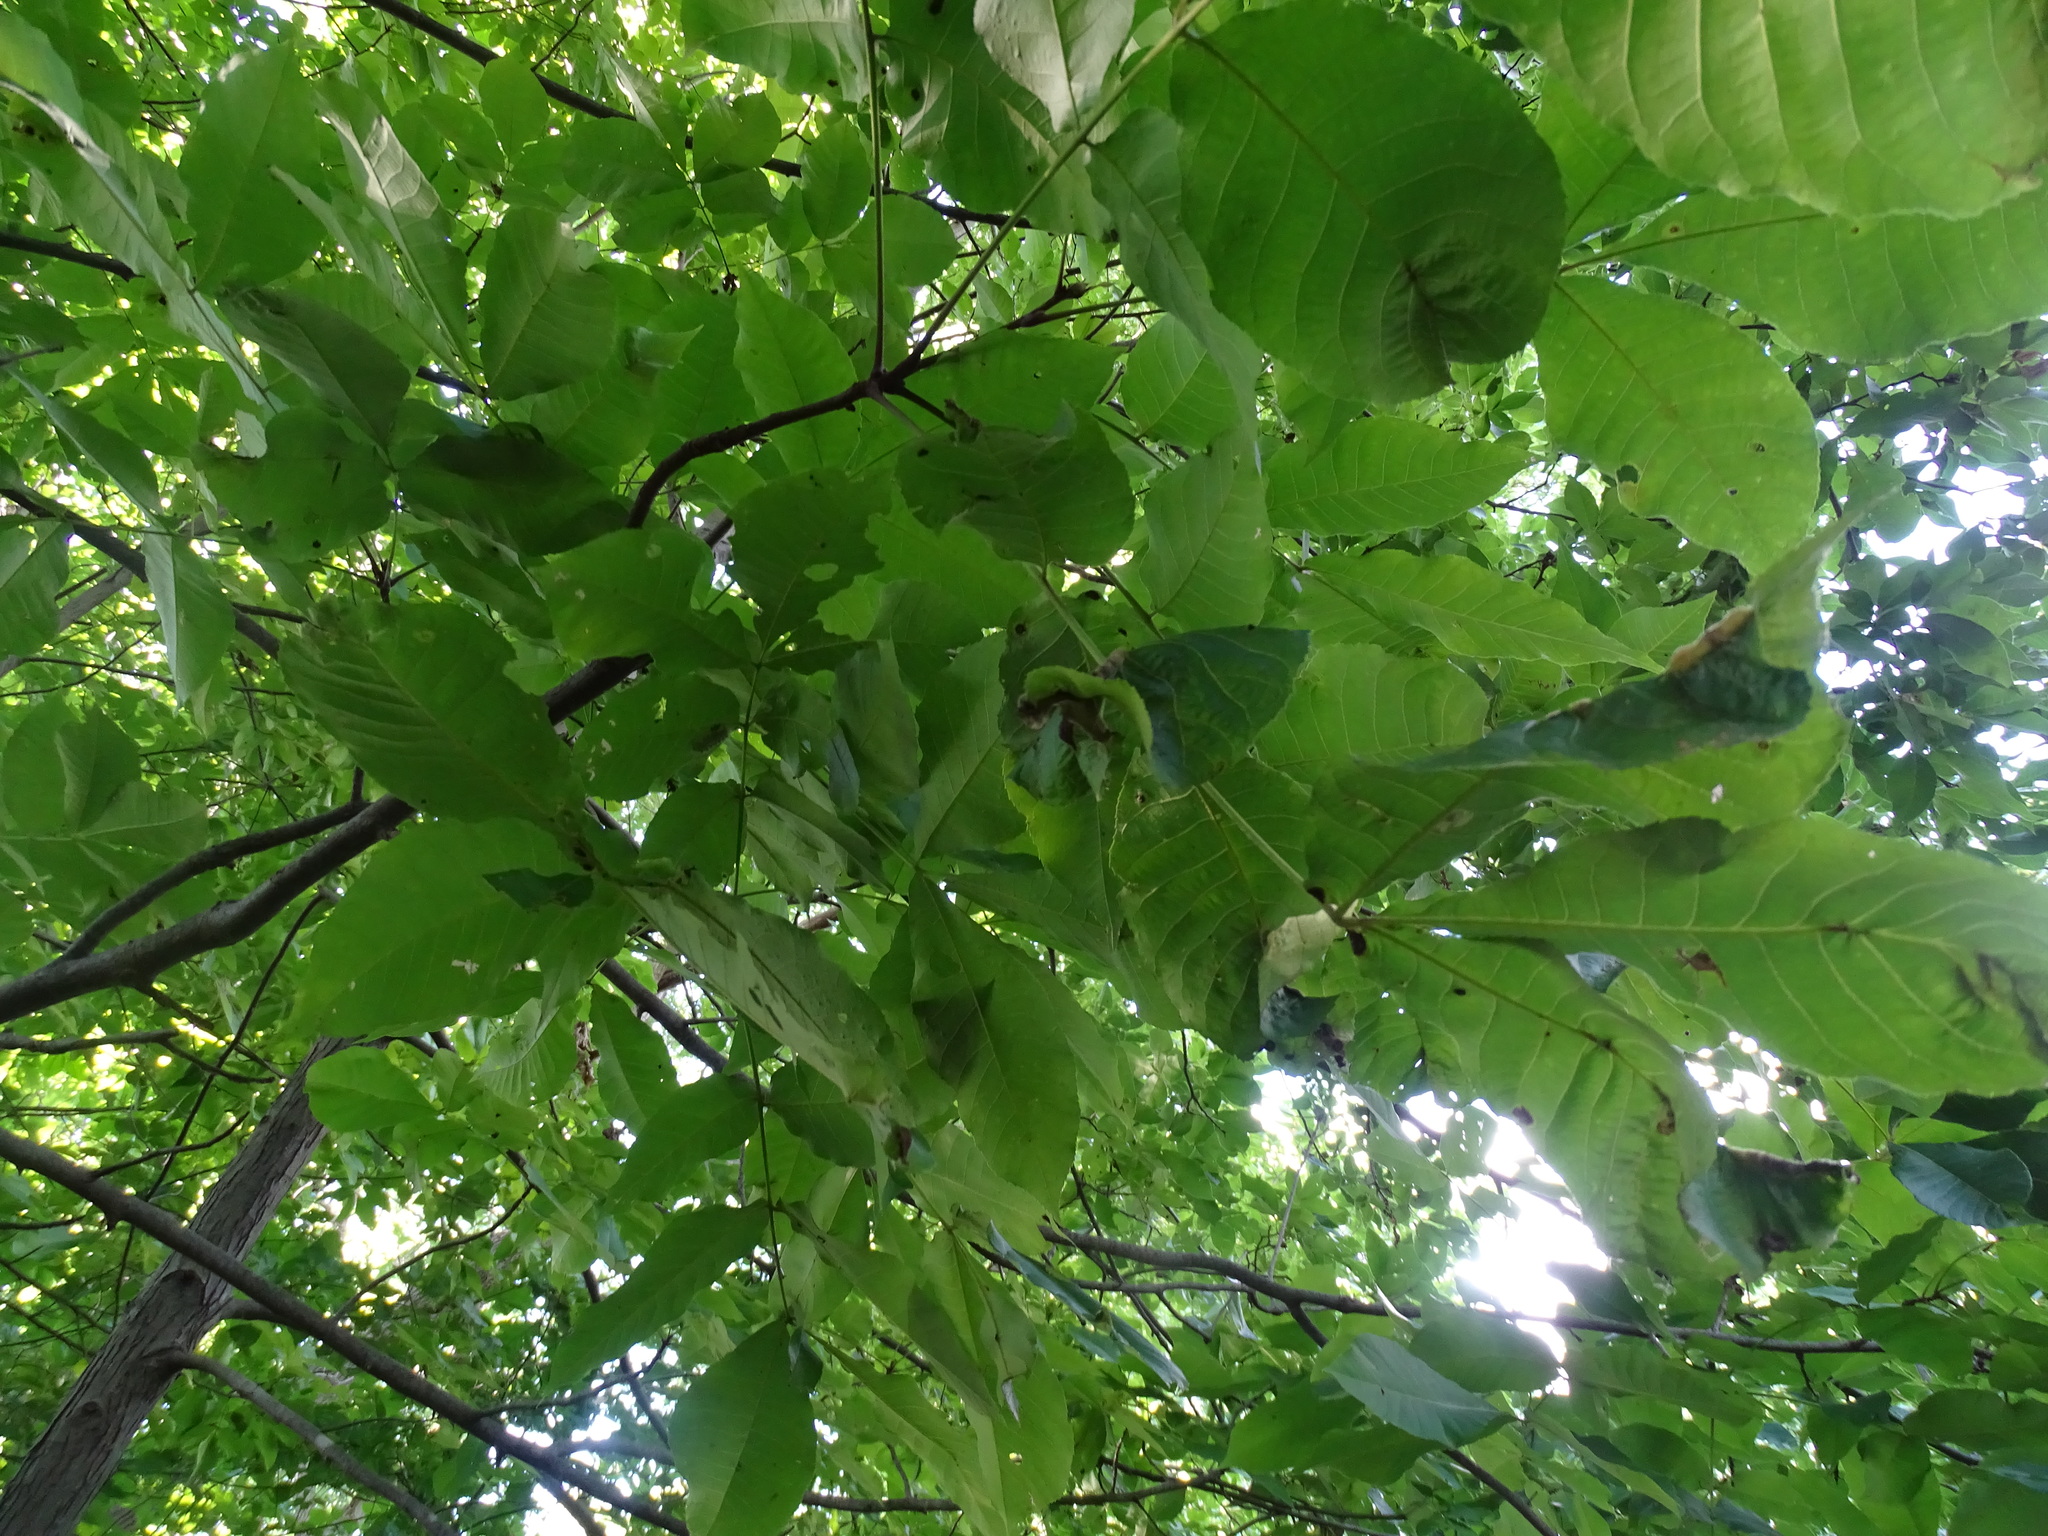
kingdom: Plantae
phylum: Tracheophyta
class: Magnoliopsida
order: Fagales
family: Juglandaceae
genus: Carya
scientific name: Carya ovata
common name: Shagbark hickory
